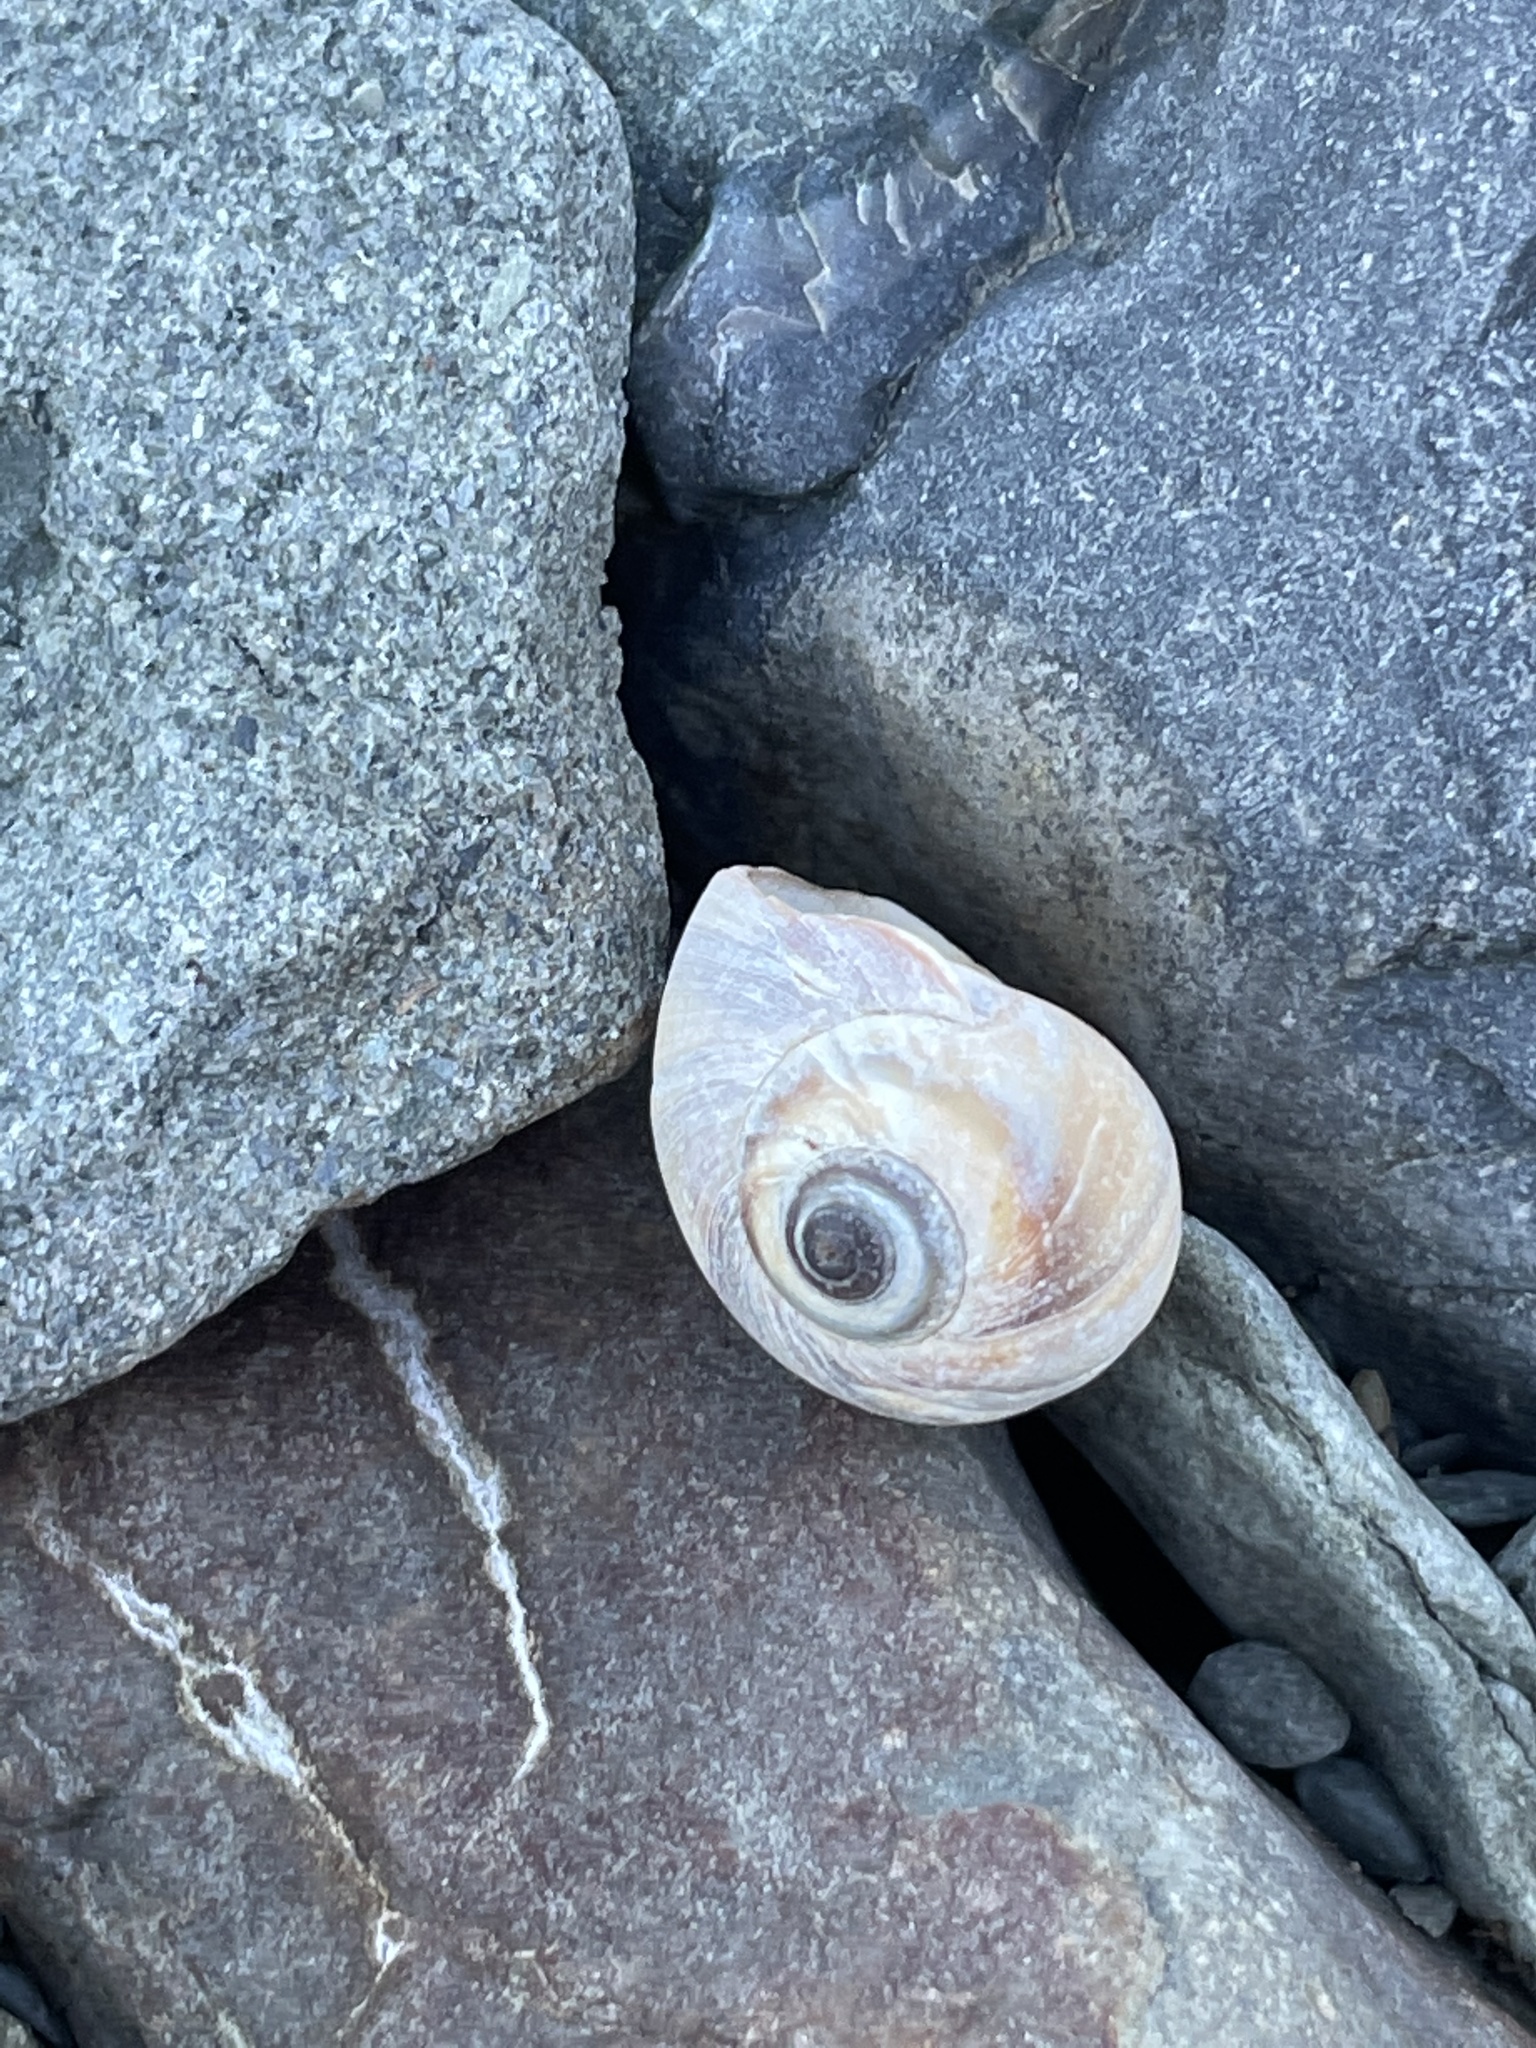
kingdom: Animalia
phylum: Mollusca
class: Gastropoda
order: Littorinimorpha
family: Naticidae
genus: Euspira
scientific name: Euspira heros
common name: Common northern moonsnail
